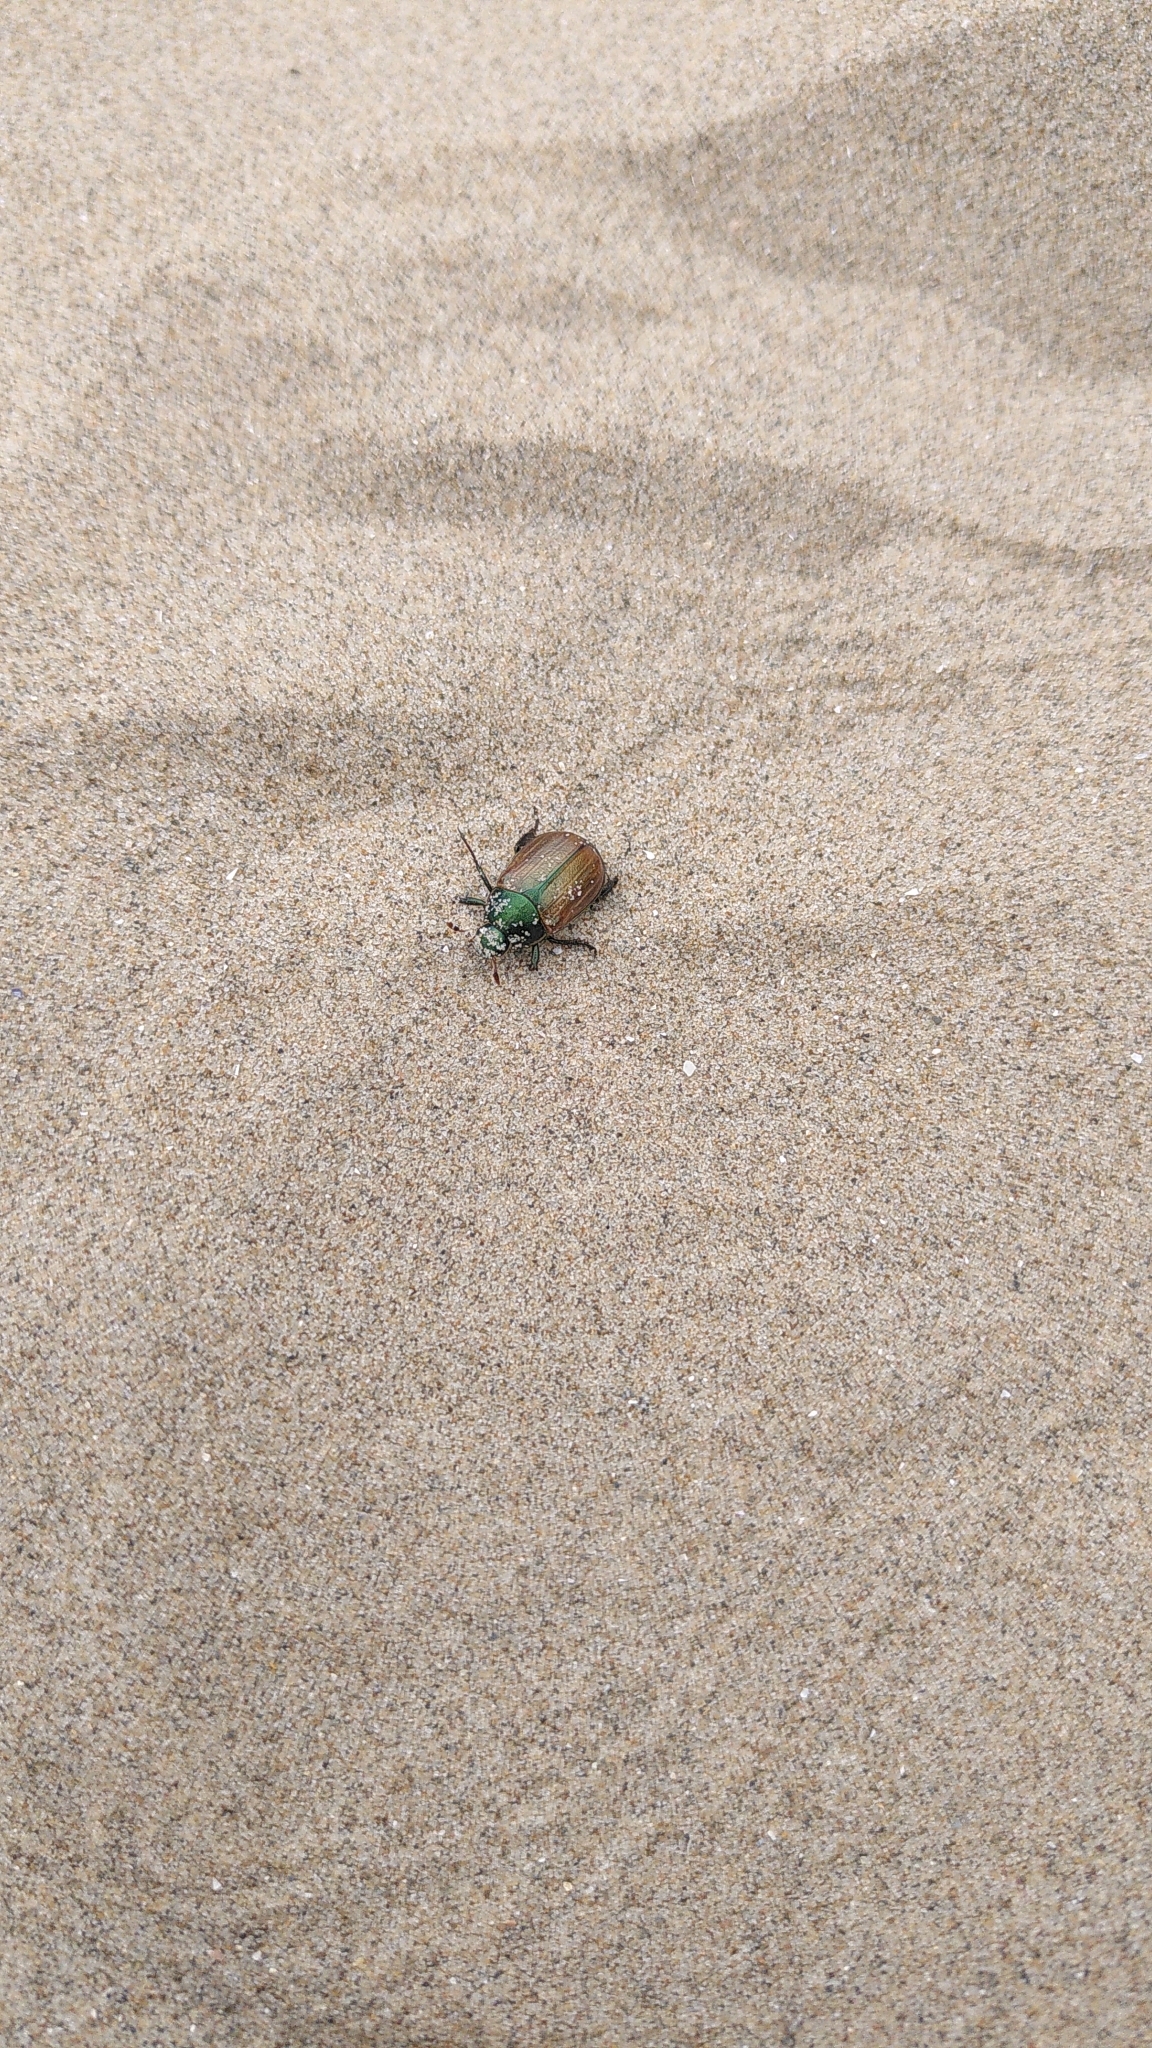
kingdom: Animalia
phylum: Arthropoda
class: Insecta
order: Coleoptera
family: Scarabaeidae
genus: Anomala
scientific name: Anomala dubia
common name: Dune chafer
